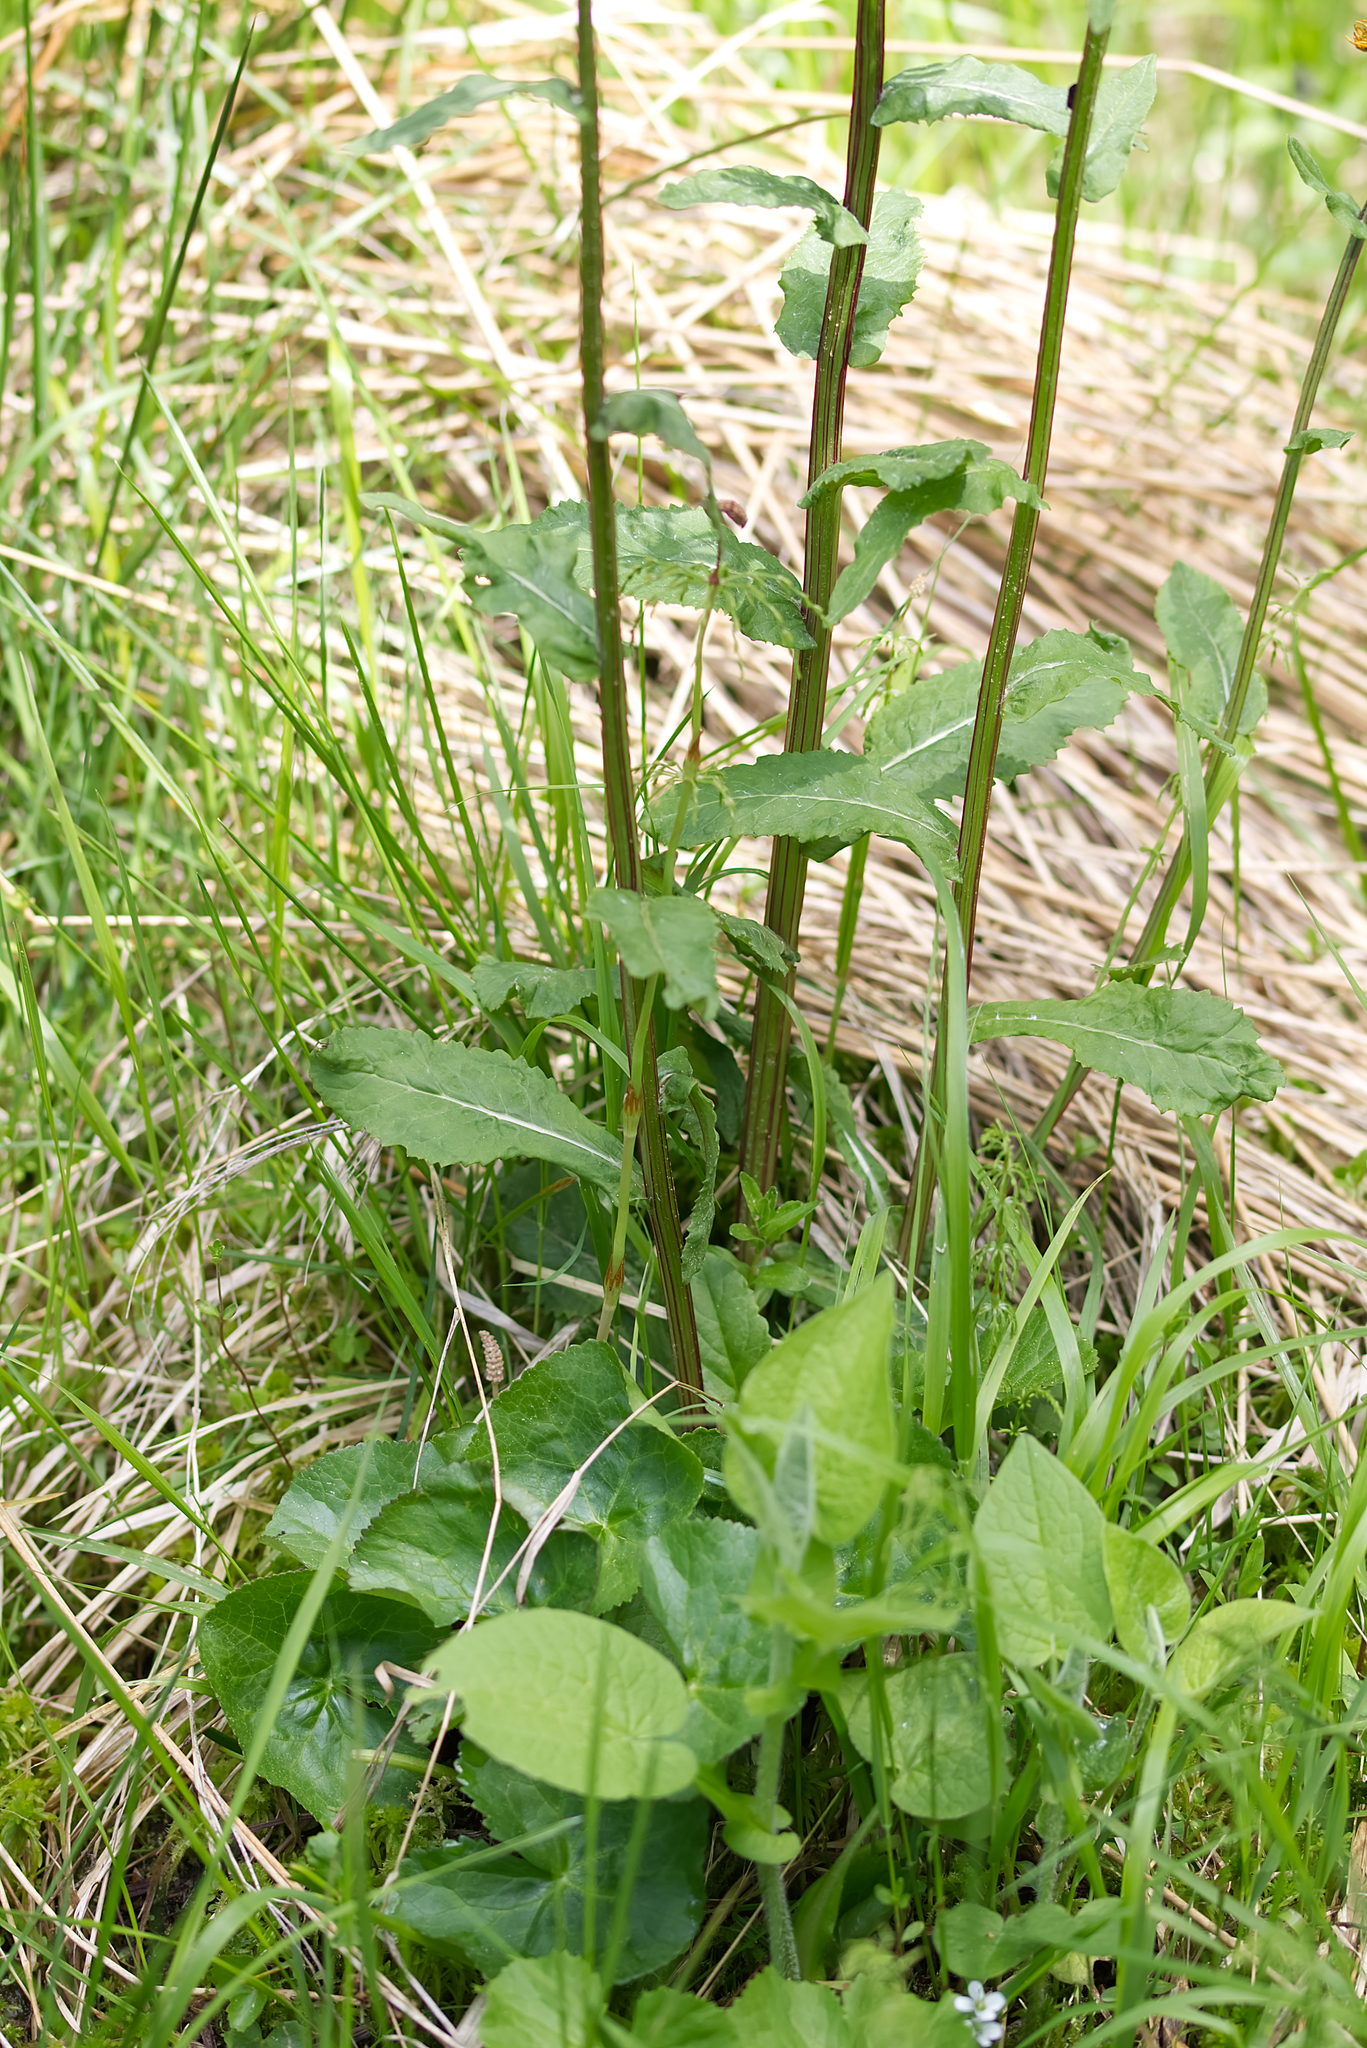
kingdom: Plantae
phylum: Tracheophyta
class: Magnoliopsida
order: Asterales
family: Asteraceae
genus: Tephroseris
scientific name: Tephroseris crispa
